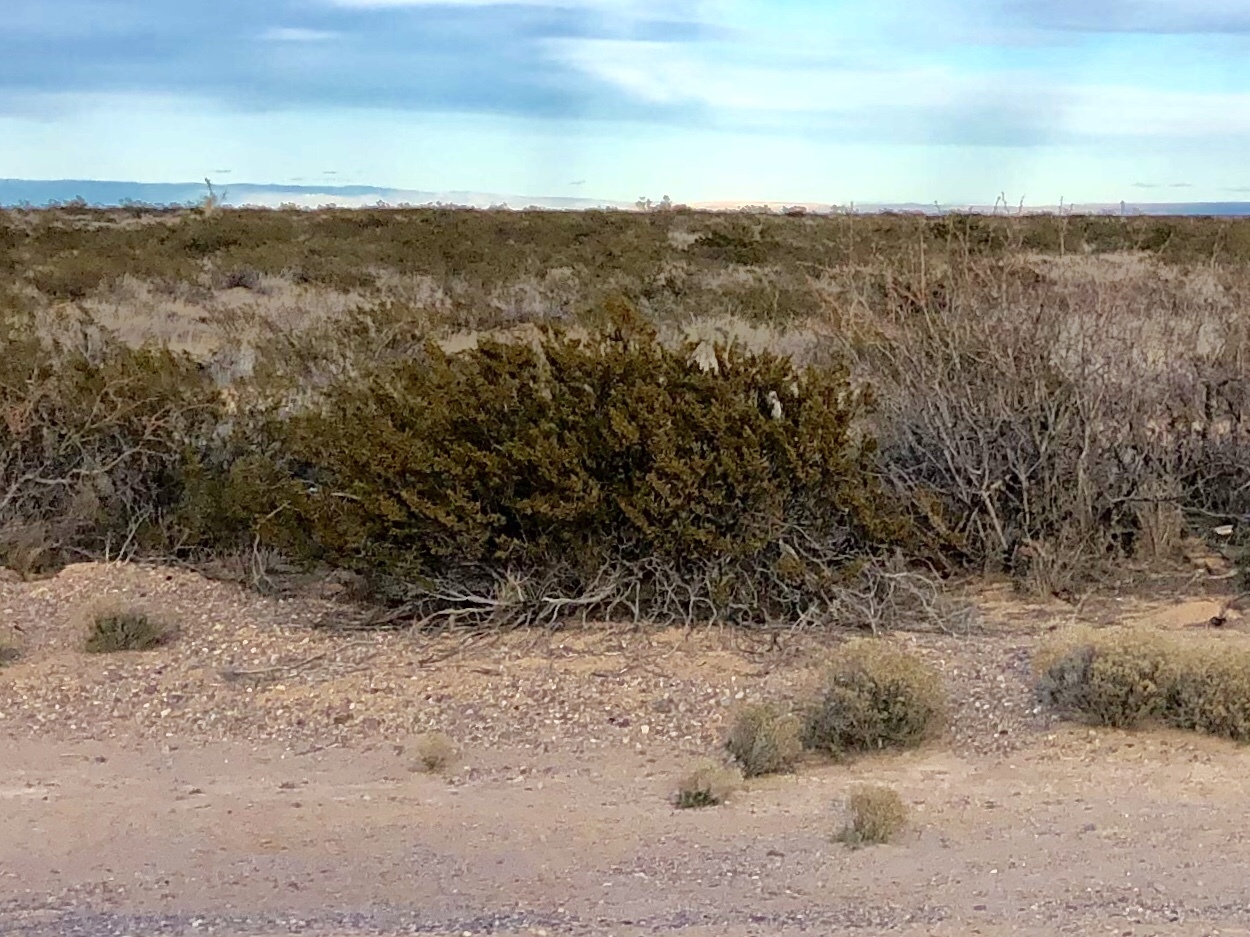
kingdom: Plantae
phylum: Tracheophyta
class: Magnoliopsida
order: Zygophyllales
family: Zygophyllaceae
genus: Larrea
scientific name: Larrea tridentata
